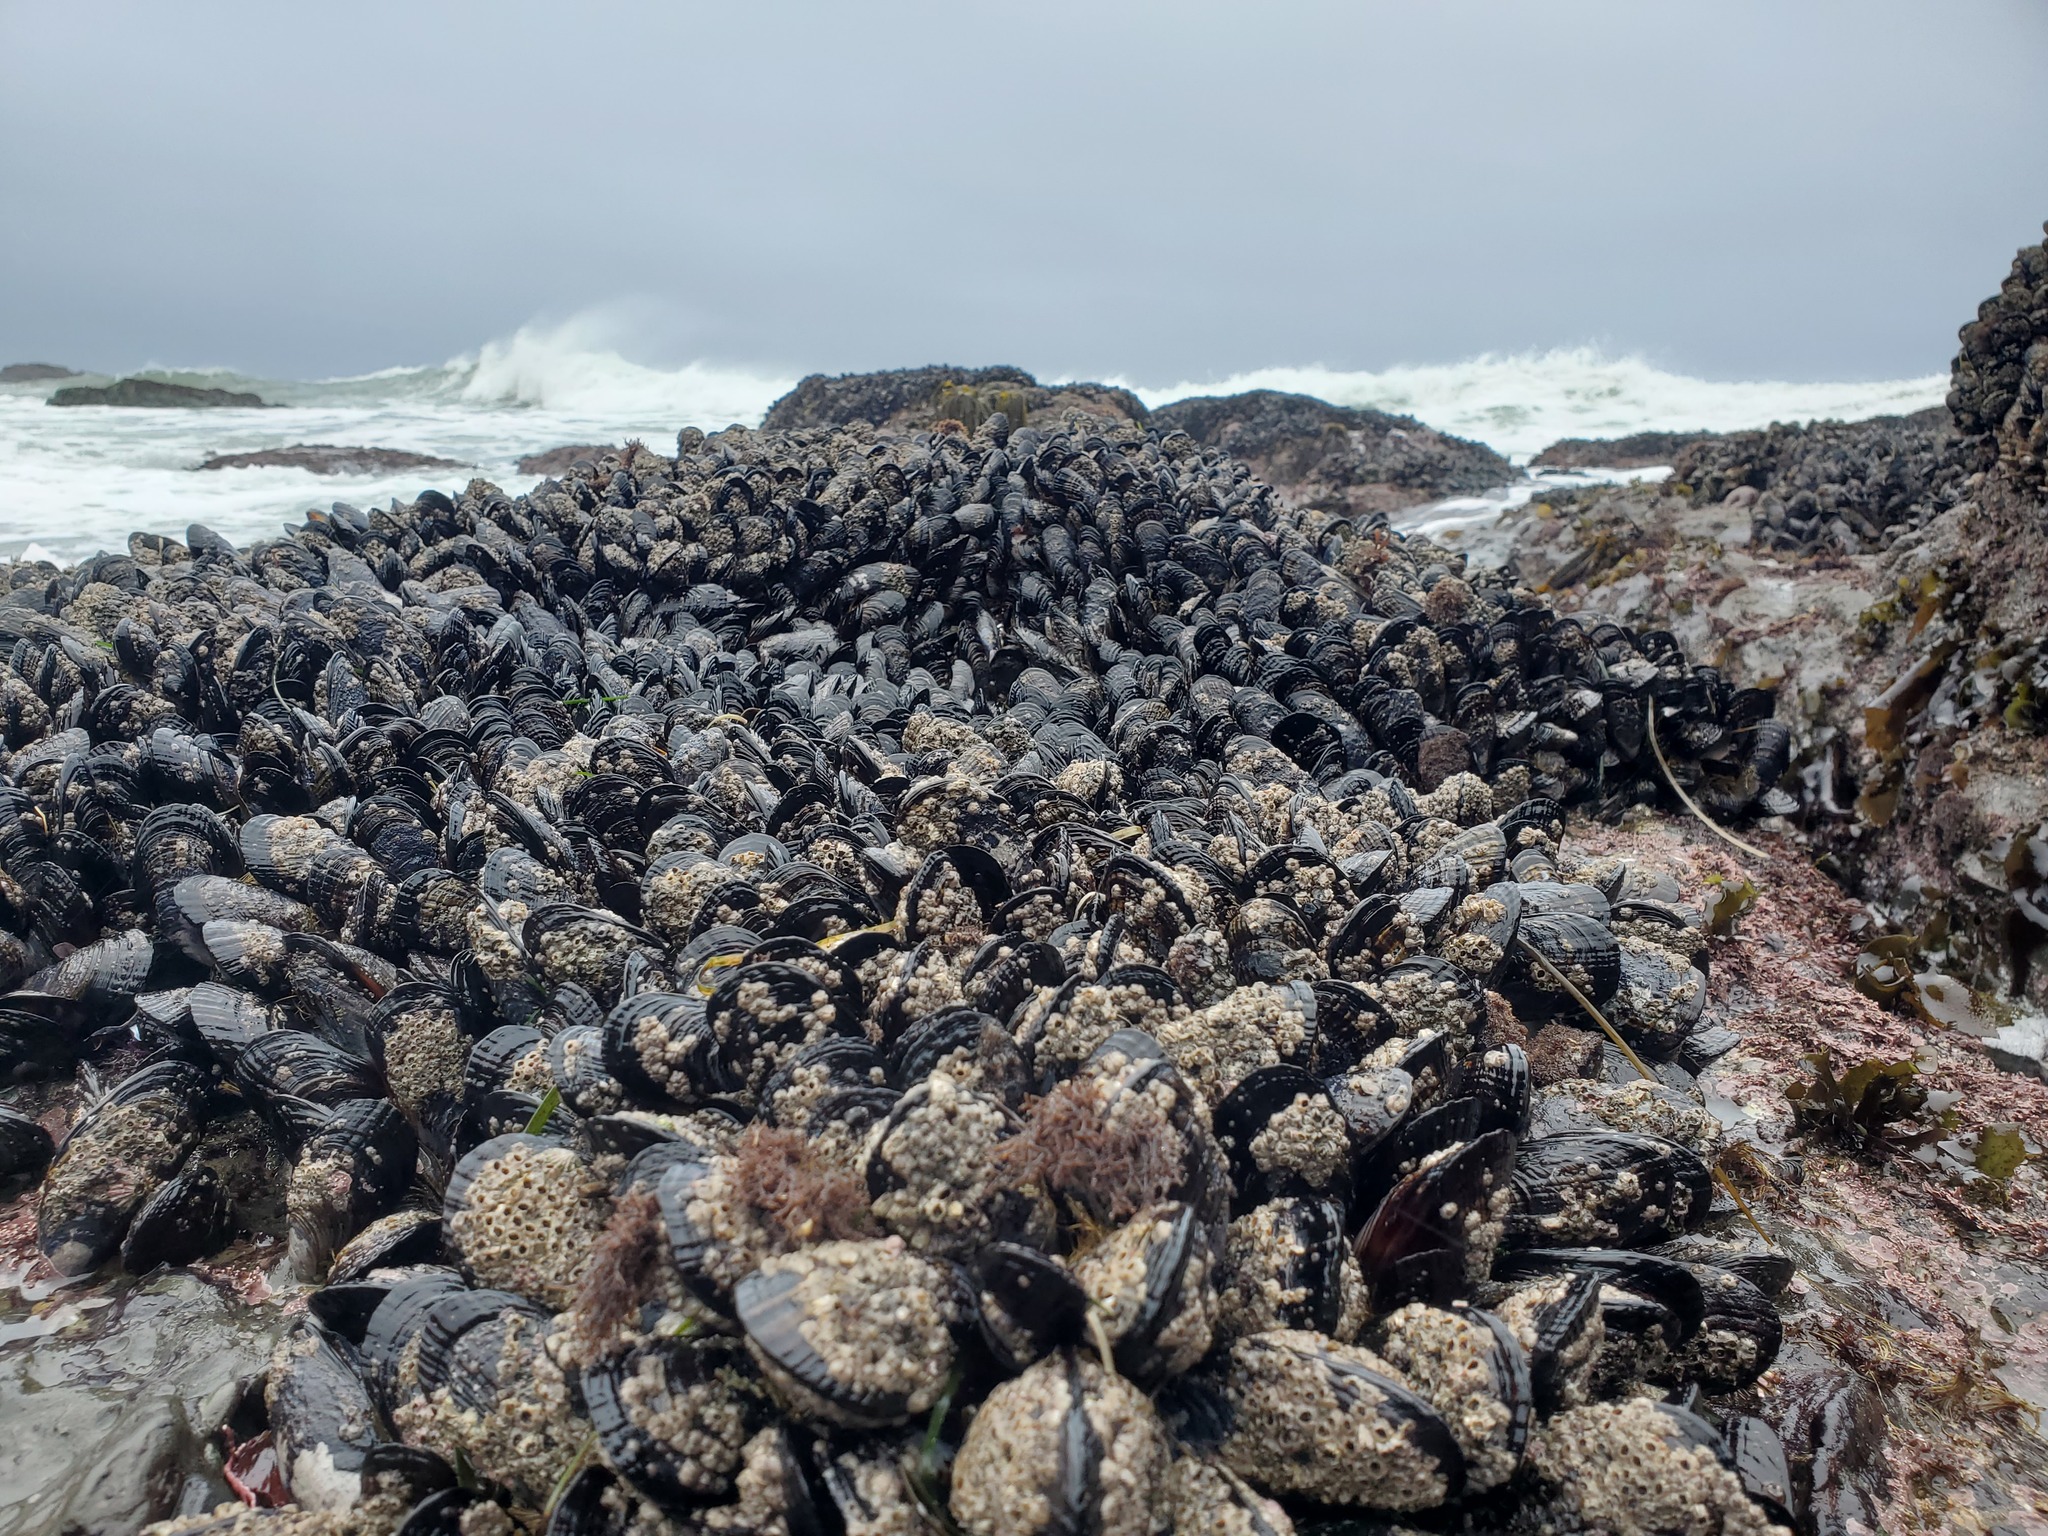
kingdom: Animalia
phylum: Mollusca
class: Bivalvia
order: Mytilida
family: Mytilidae
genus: Mytilus
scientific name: Mytilus californianus
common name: California mussel
